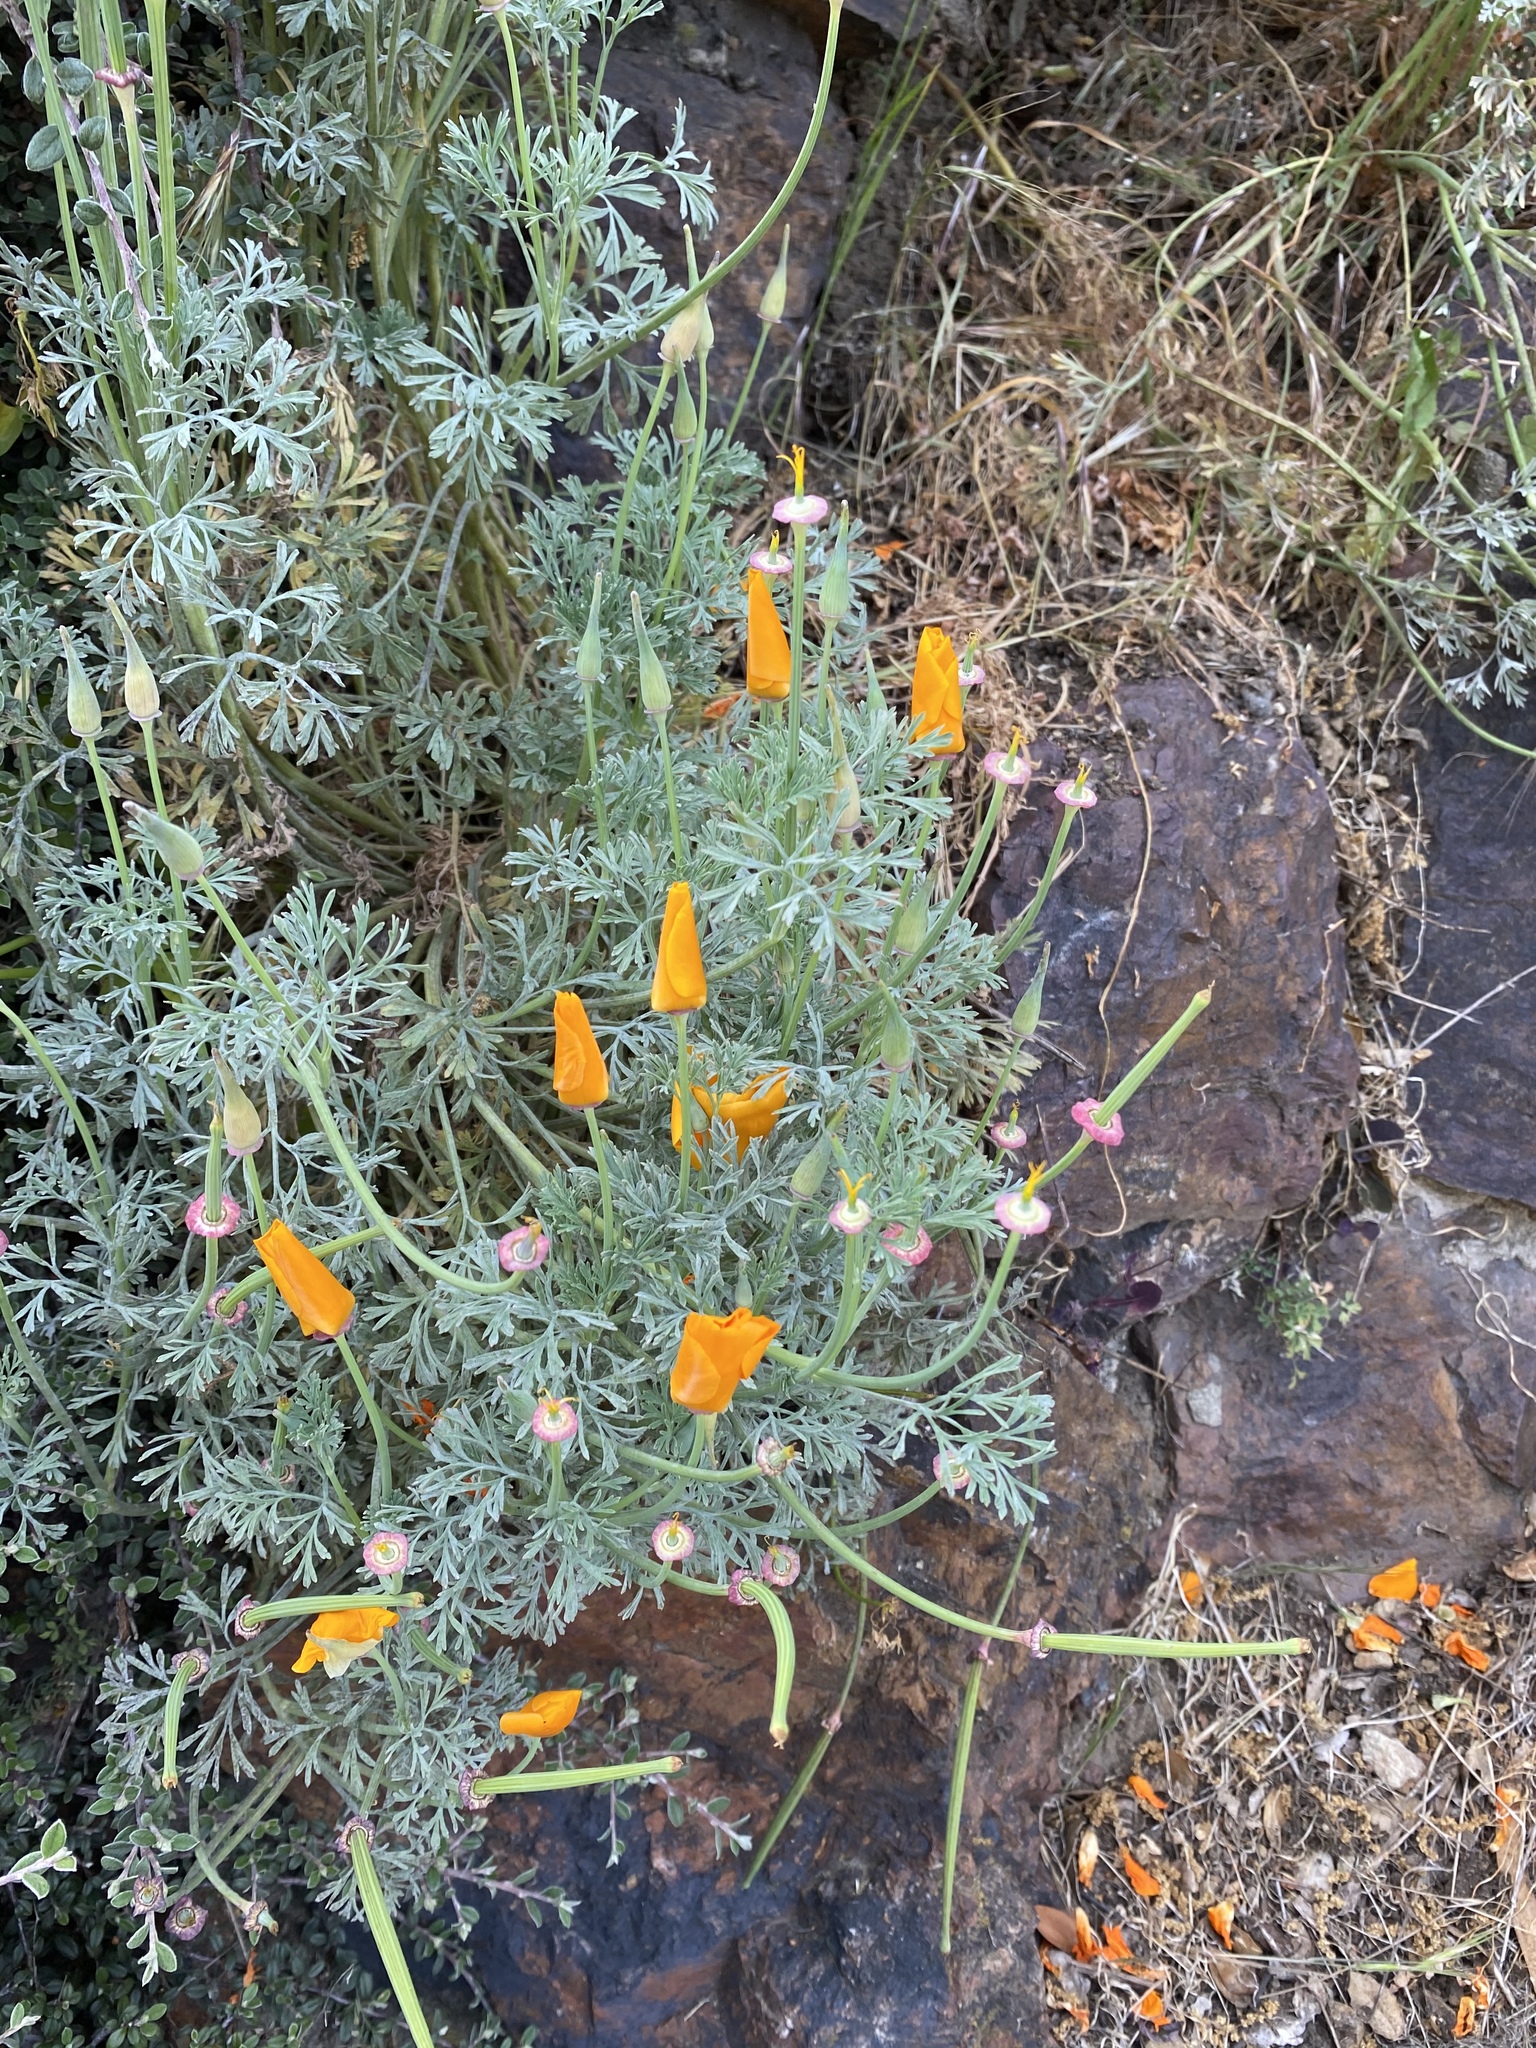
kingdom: Plantae
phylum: Tracheophyta
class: Magnoliopsida
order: Ranunculales
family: Papaveraceae
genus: Eschscholzia
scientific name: Eschscholzia californica
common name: California poppy
